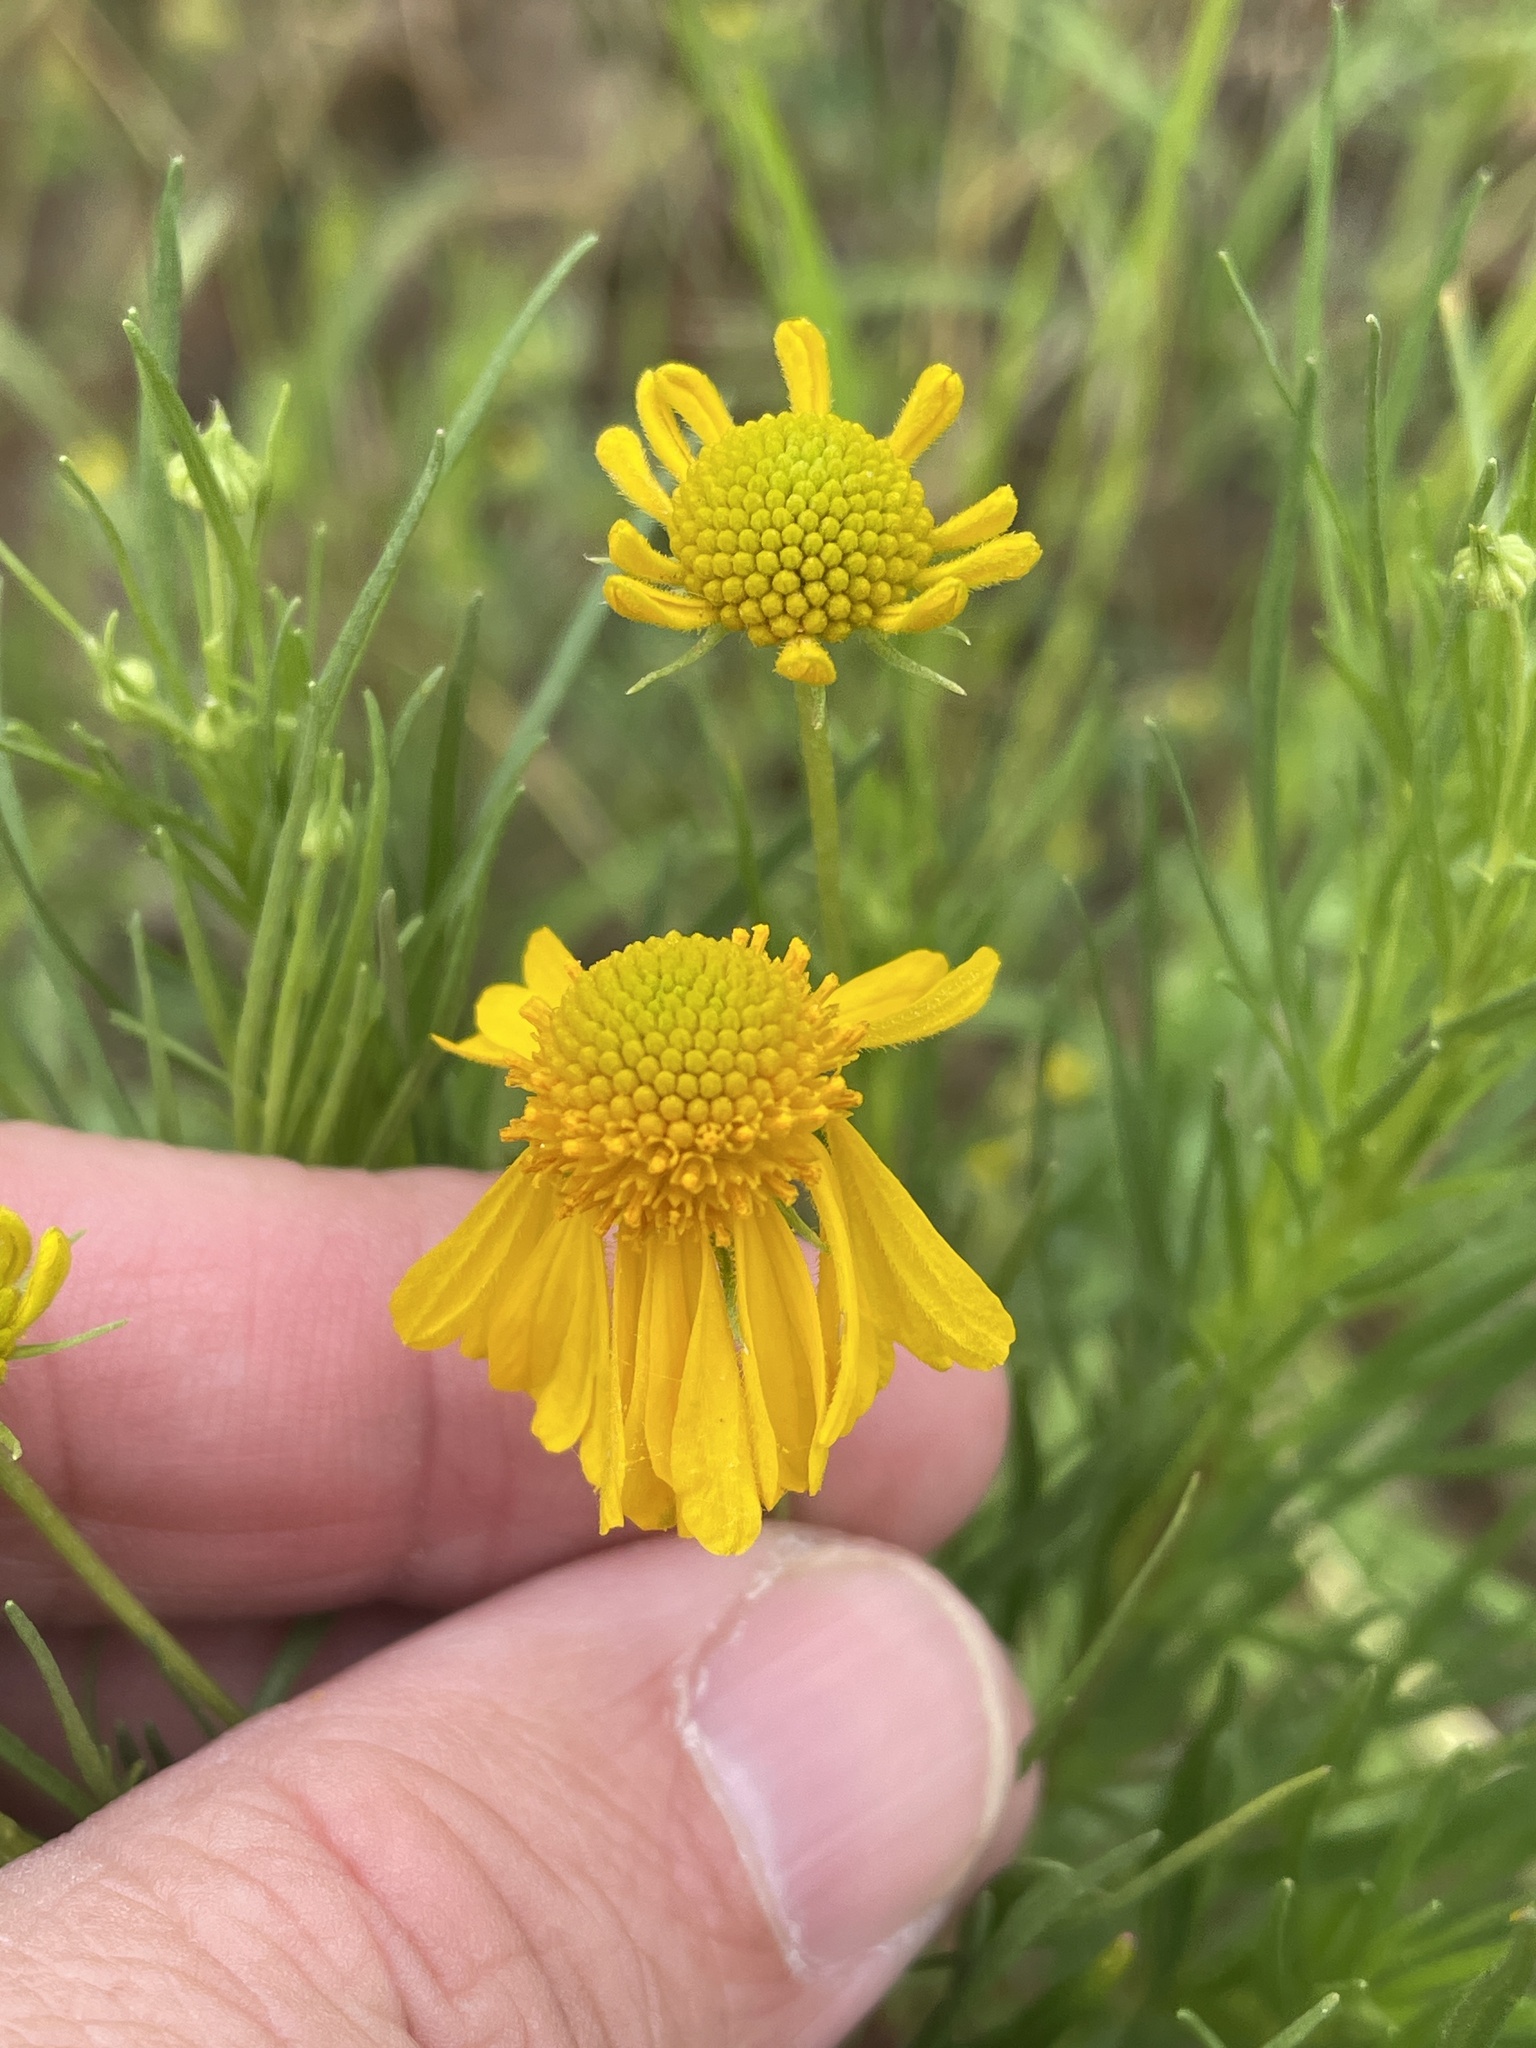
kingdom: Plantae
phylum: Tracheophyta
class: Magnoliopsida
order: Asterales
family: Asteraceae
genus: Helenium
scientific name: Helenium amarum
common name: Bitter sneezeweed
